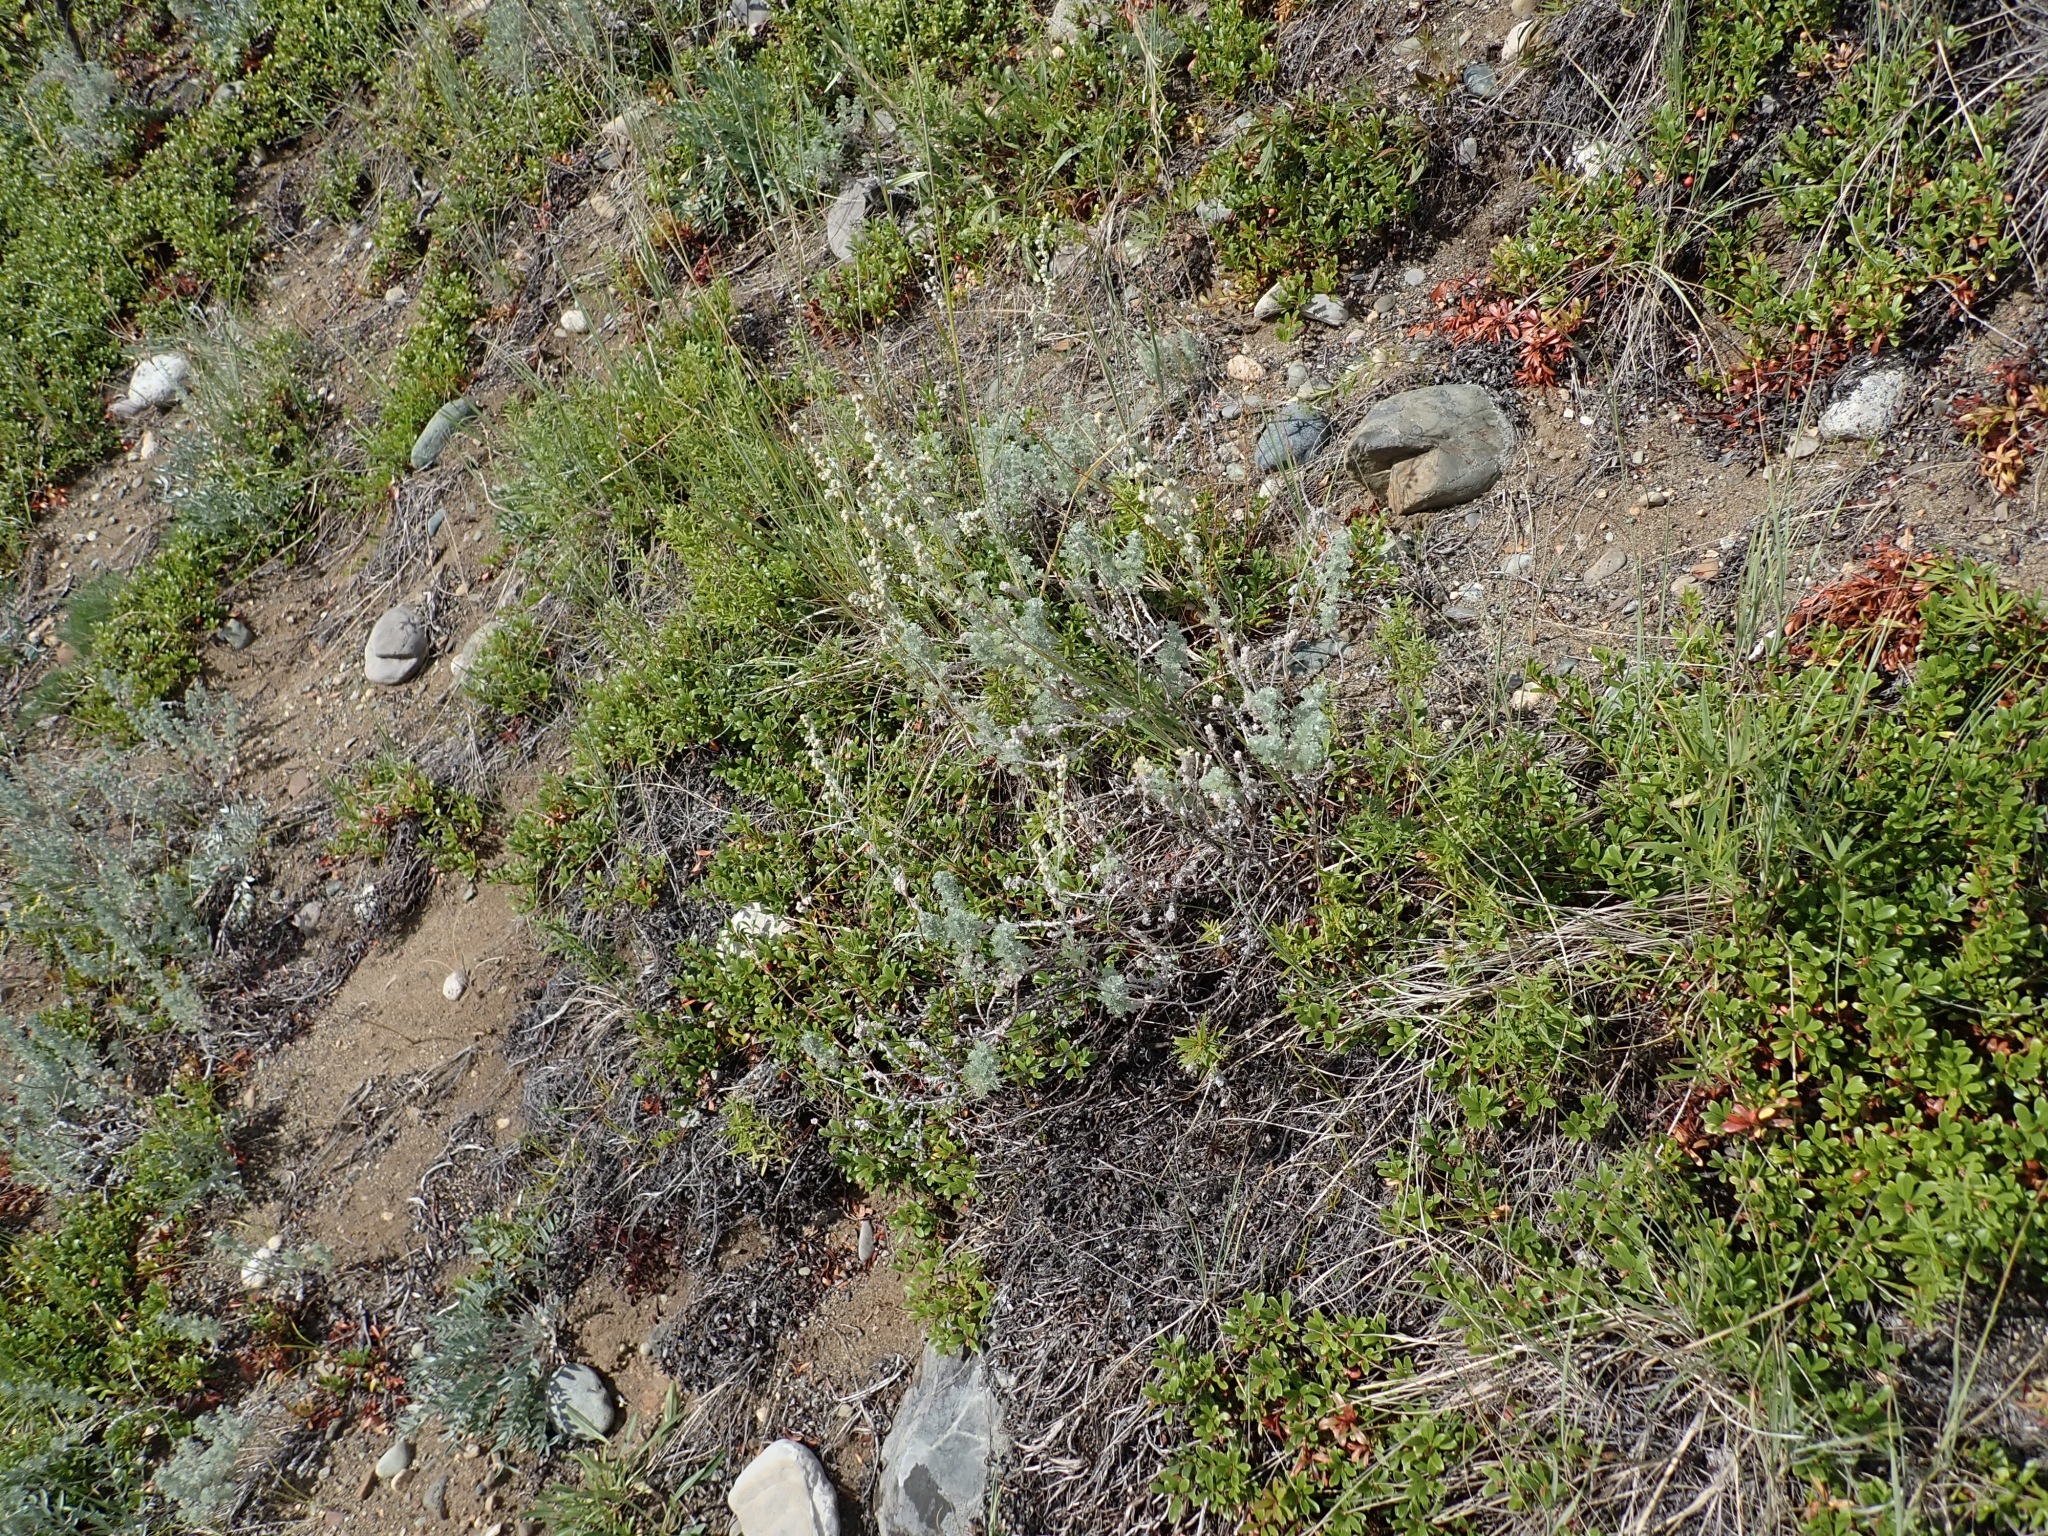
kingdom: Plantae
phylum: Tracheophyta
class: Magnoliopsida
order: Asterales
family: Asteraceae
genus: Artemisia
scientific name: Artemisia frigida
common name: Prairie sagewort
